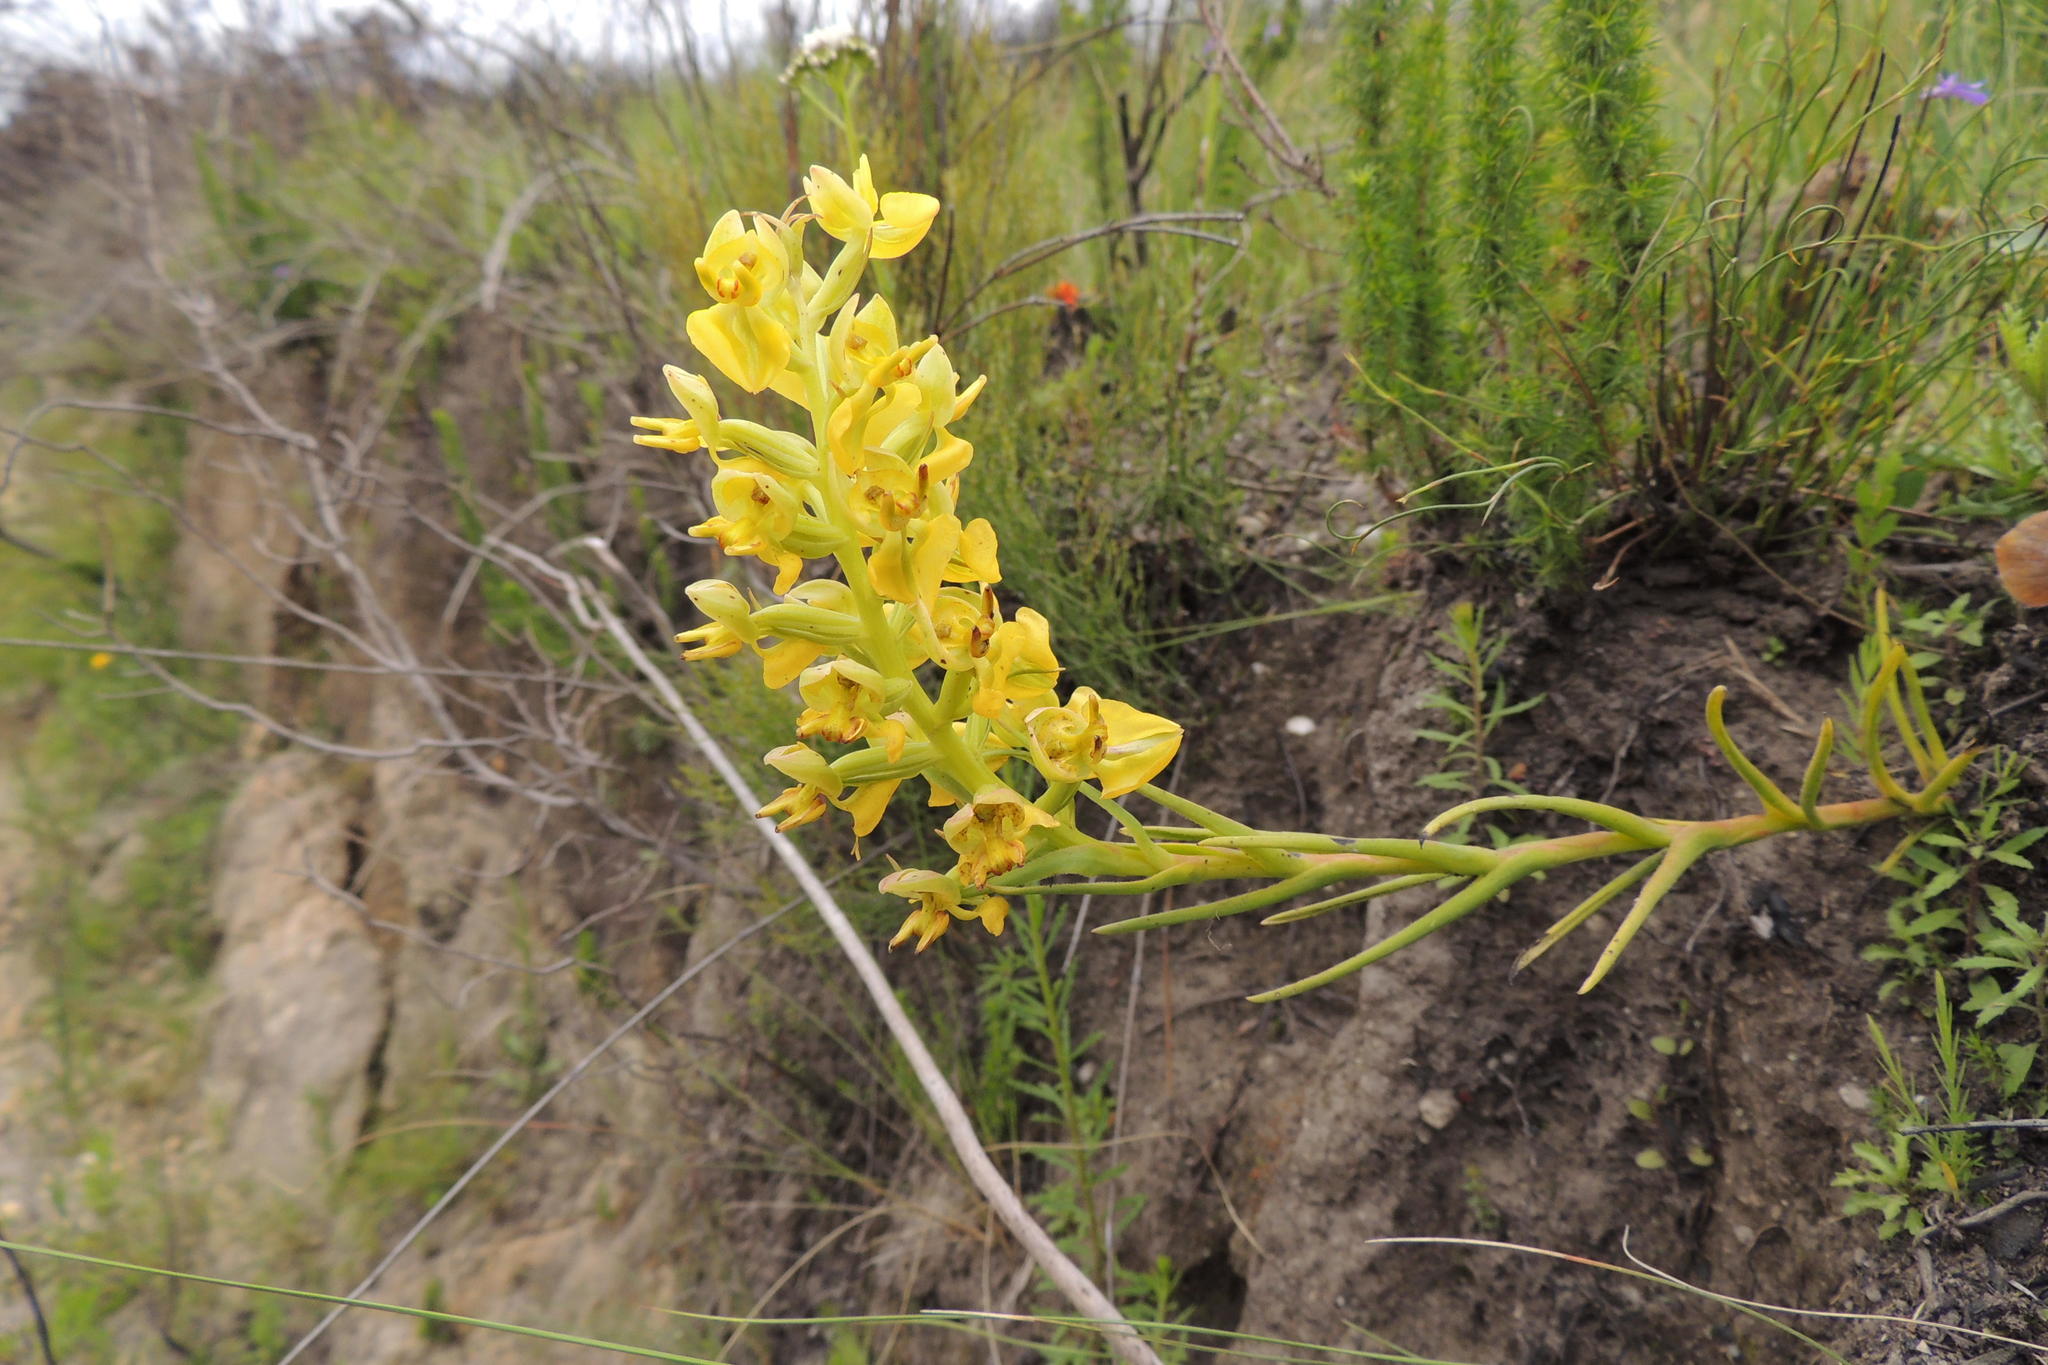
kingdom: Plantae
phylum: Tracheophyta
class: Liliopsida
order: Asparagales
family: Orchidaceae
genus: Ceratandra
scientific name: Ceratandra atrata
